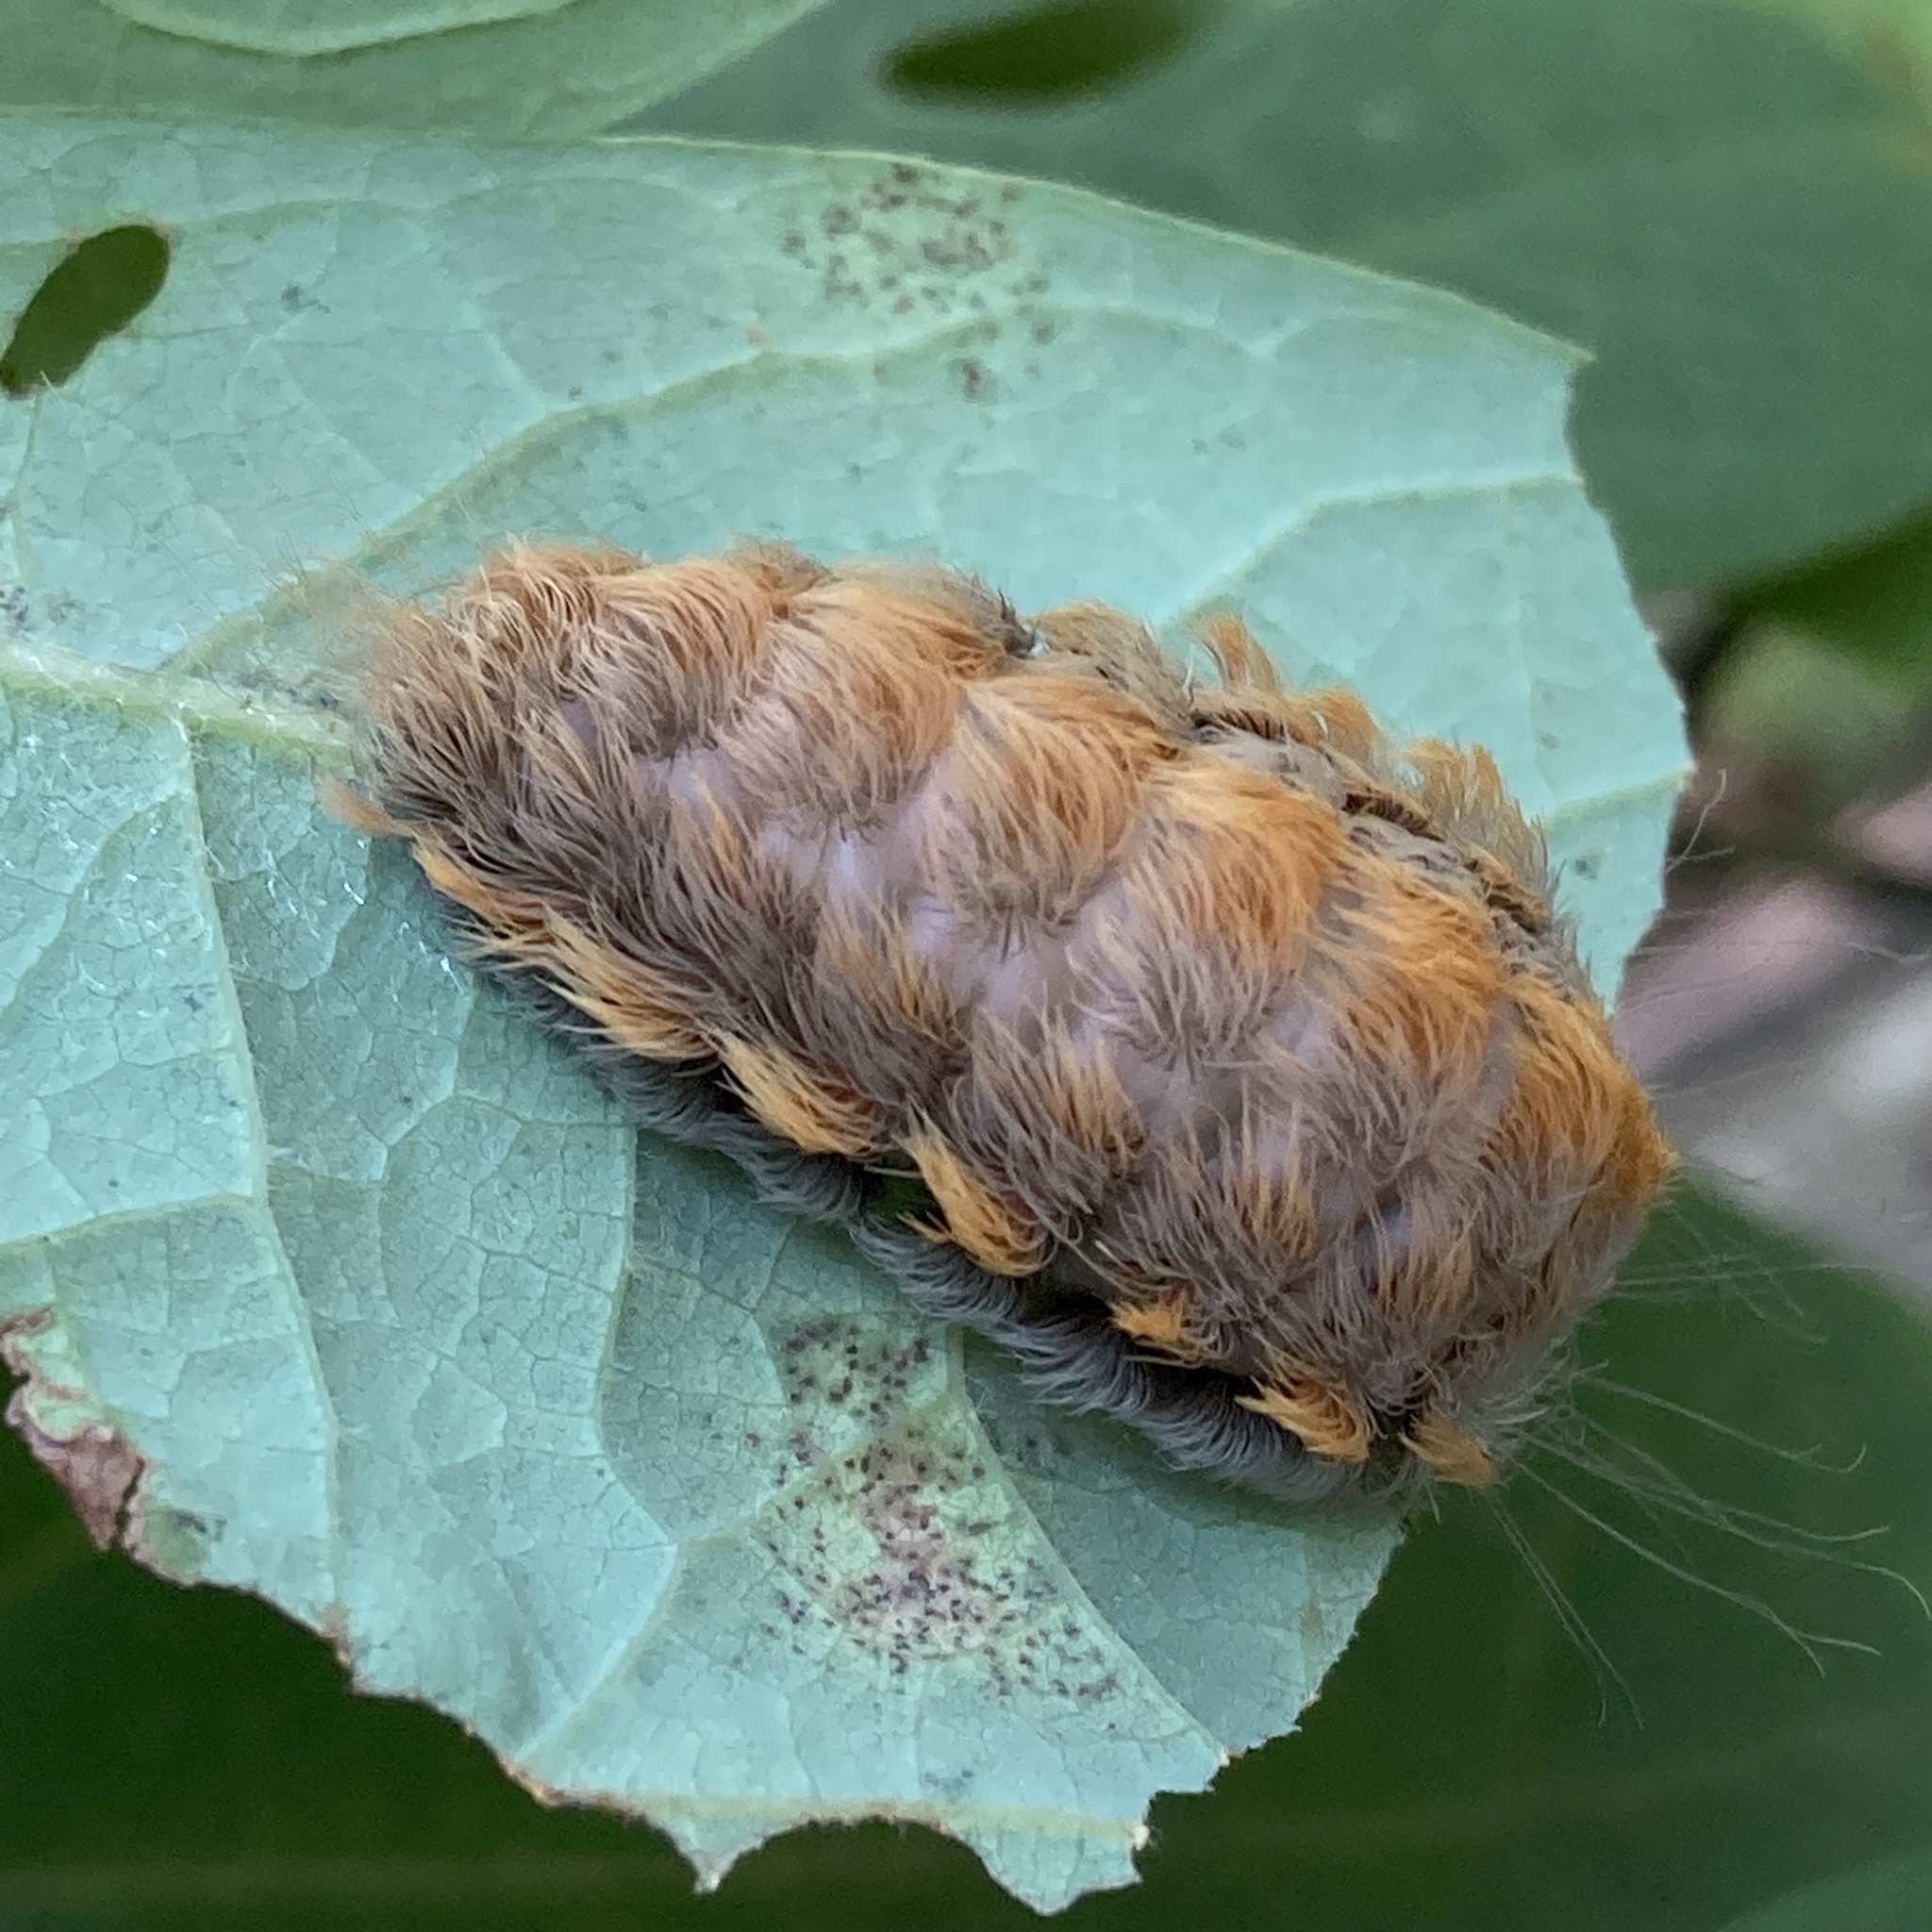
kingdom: Animalia
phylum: Arthropoda
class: Insecta
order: Lepidoptera
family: Megalopygidae
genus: Megalopyge
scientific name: Megalopyge crispata
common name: Black-waved flannel moth
